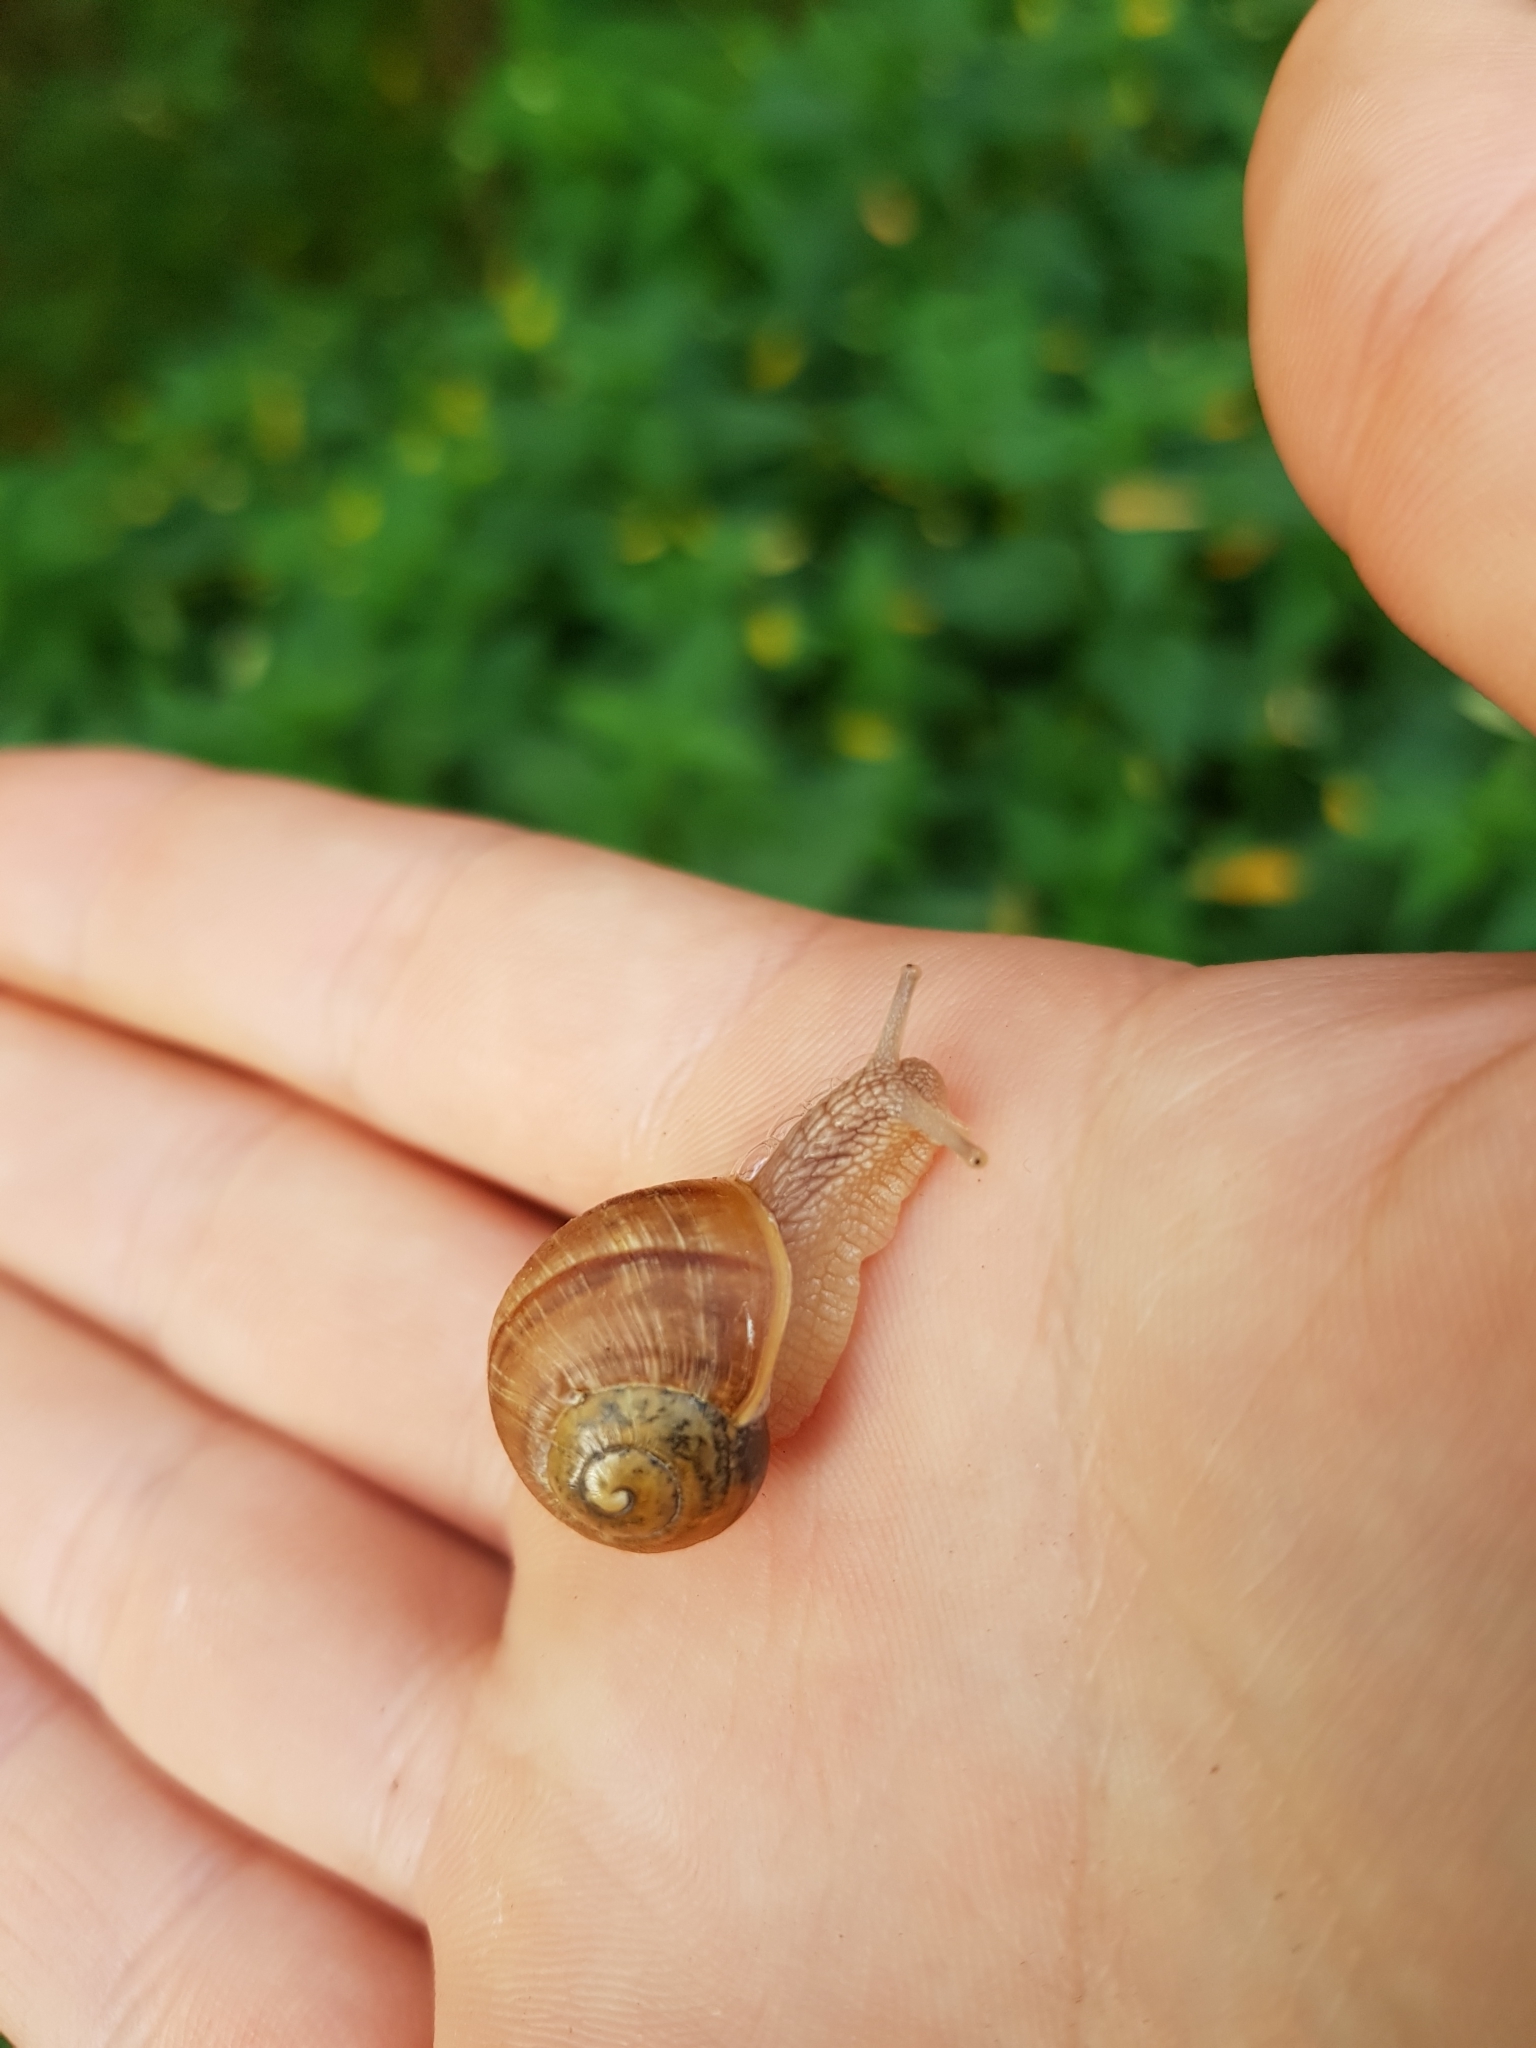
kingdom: Animalia
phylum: Mollusca
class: Gastropoda
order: Stylommatophora
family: Helicidae
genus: Helix
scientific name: Helix pomatia
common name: Roman snail
